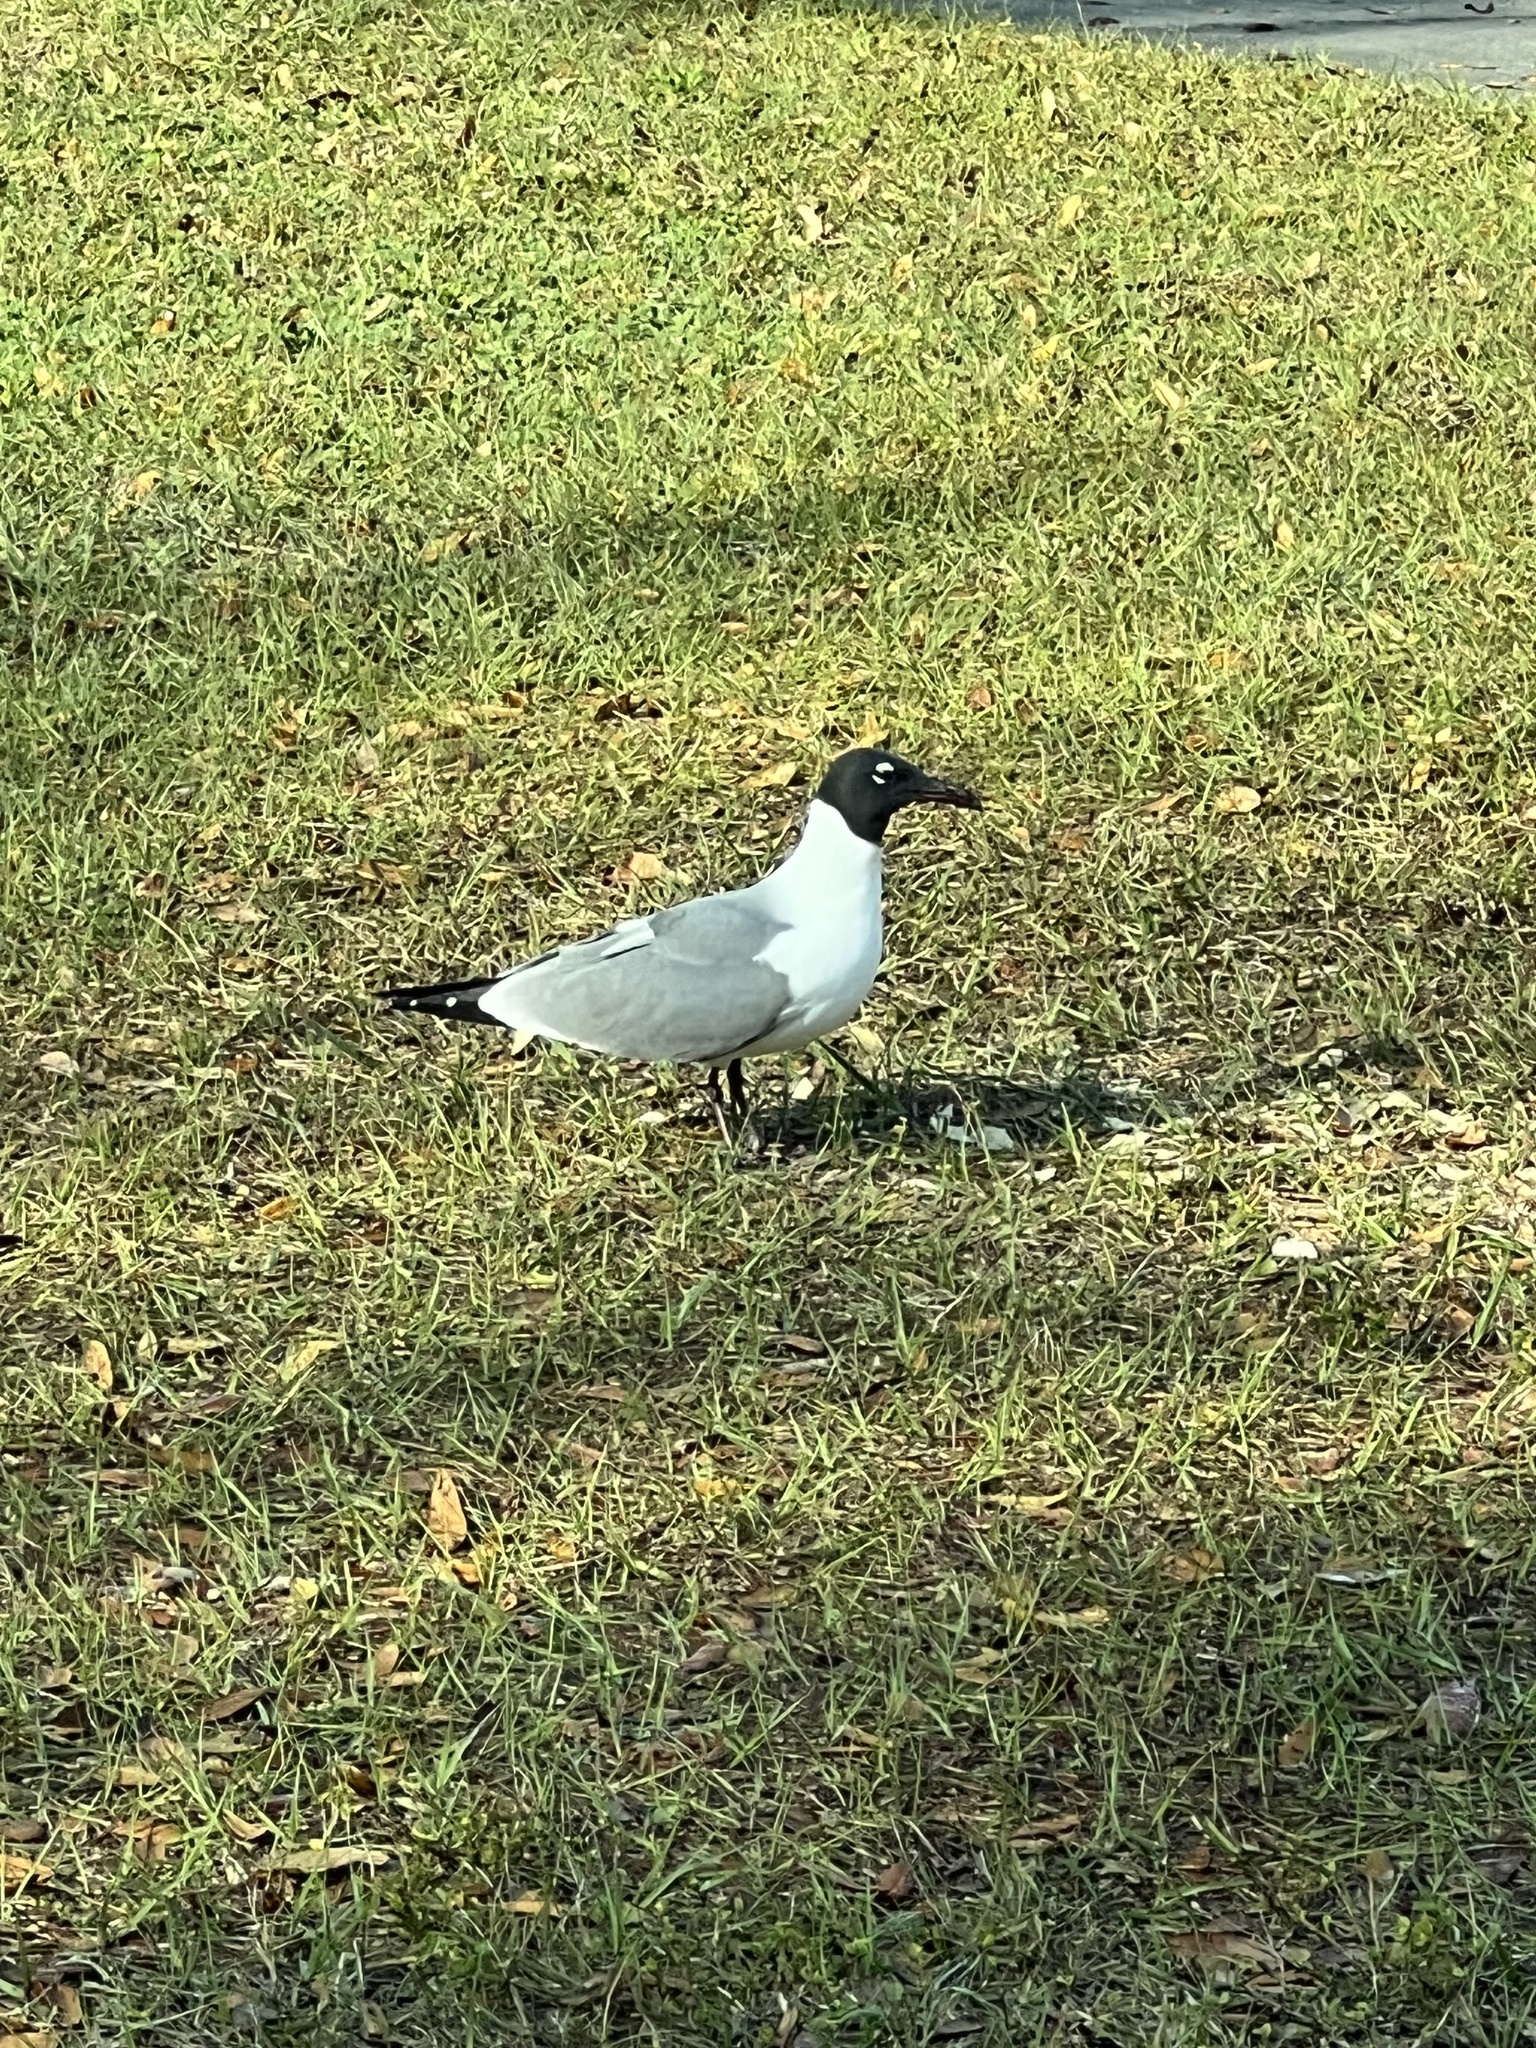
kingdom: Animalia
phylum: Chordata
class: Aves
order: Charadriiformes
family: Laridae
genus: Leucophaeus
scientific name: Leucophaeus atricilla
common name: Laughing gull
